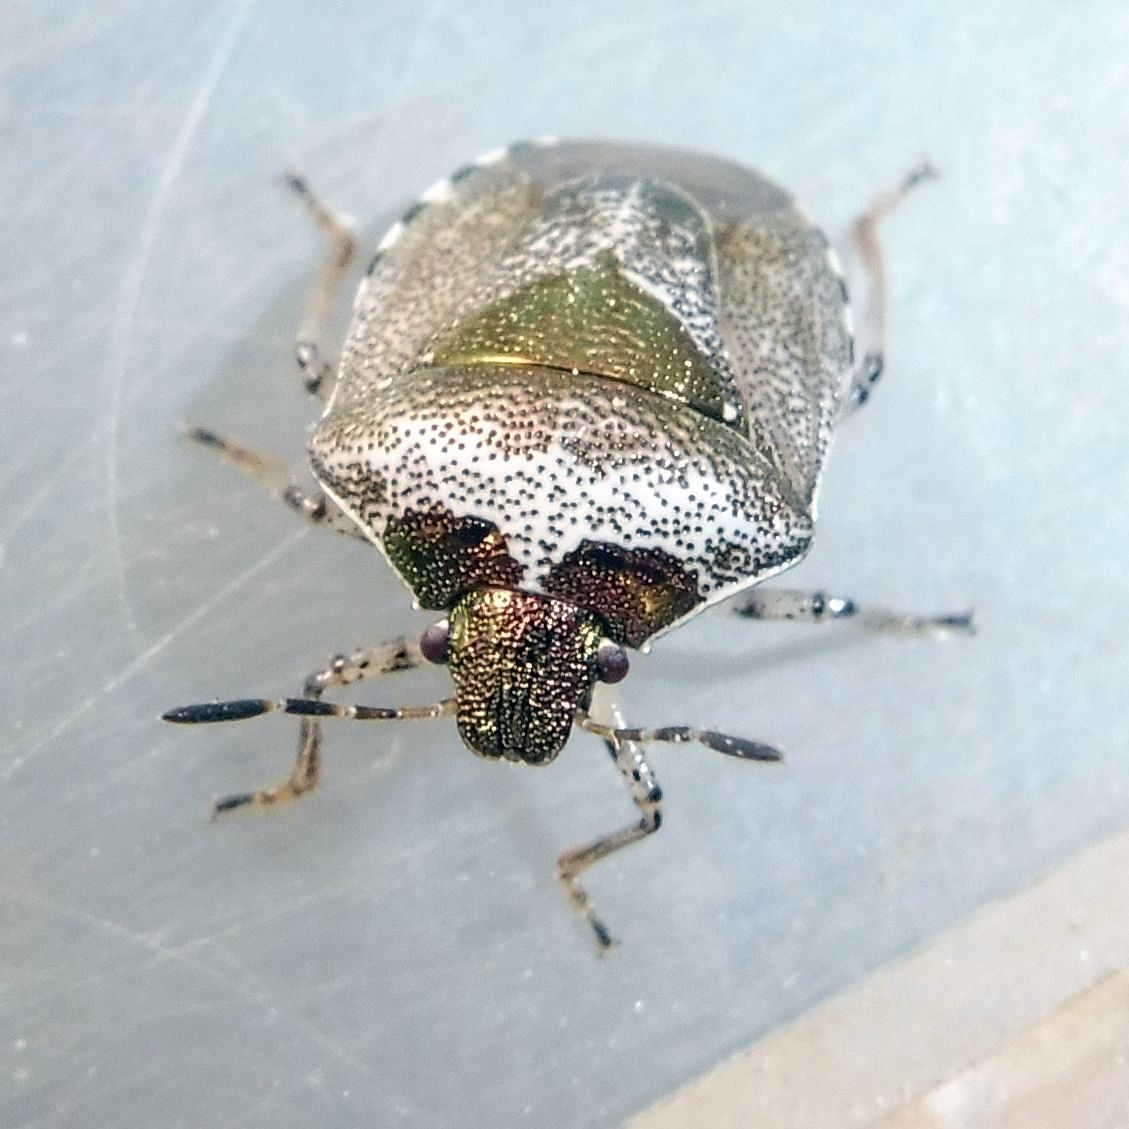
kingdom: Animalia
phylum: Arthropoda
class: Insecta
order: Hemiptera
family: Pentatomidae
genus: Eysarcoris
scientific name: Eysarcoris venustissimus
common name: Woundwort shieldbug
